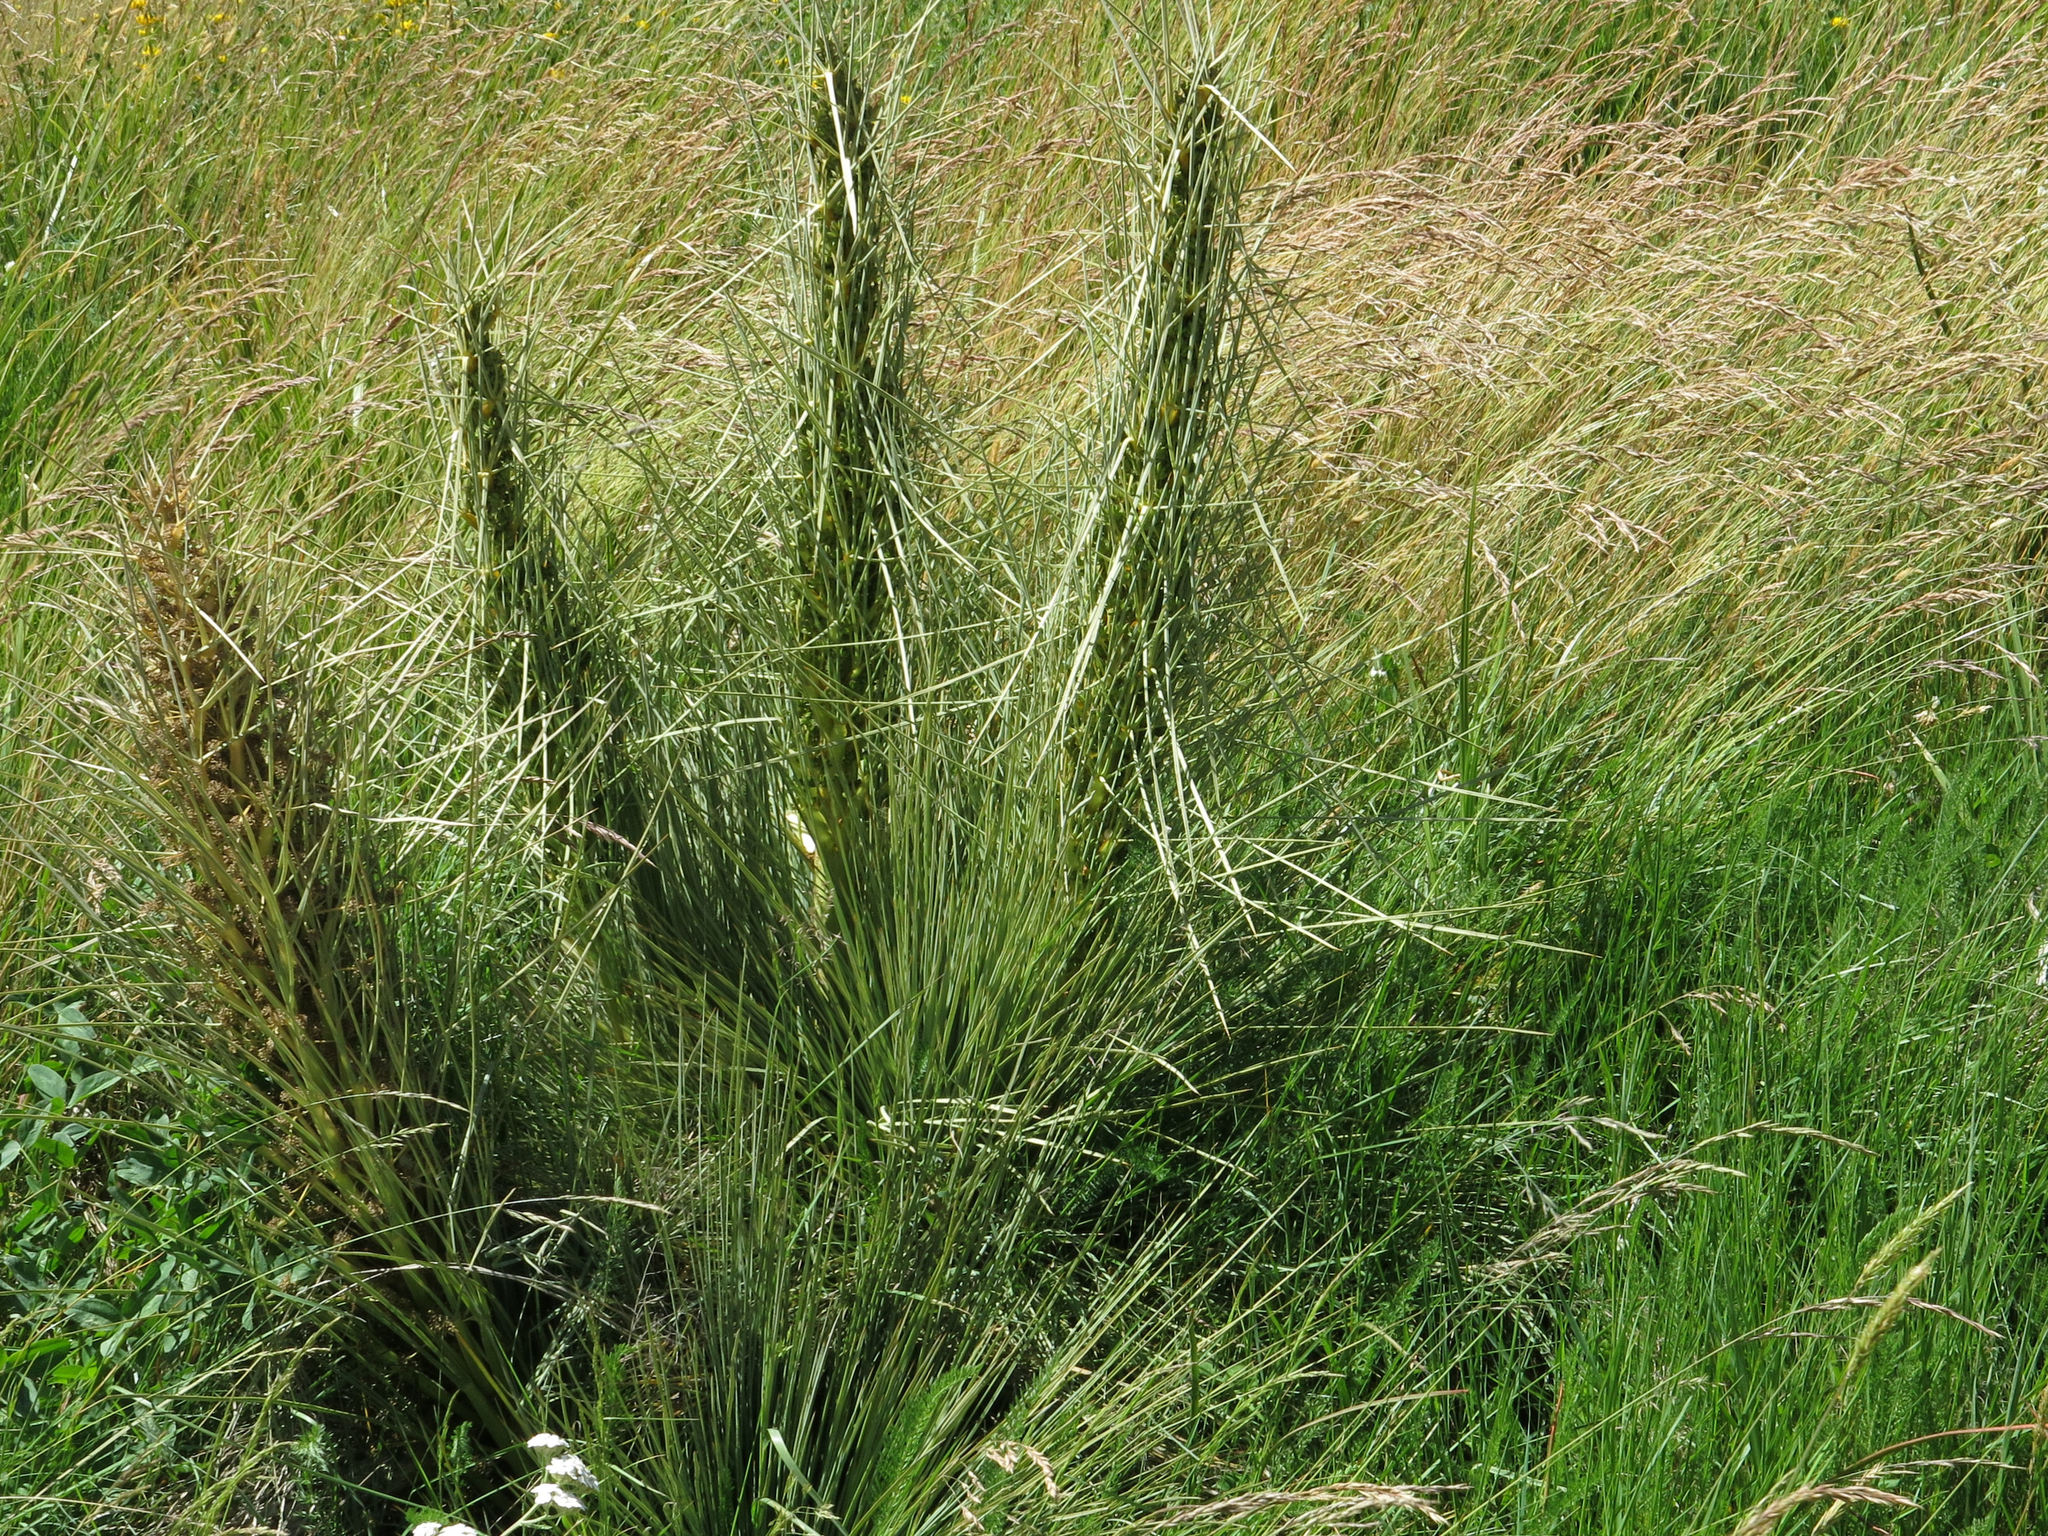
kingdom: Plantae
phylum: Tracheophyta
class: Magnoliopsida
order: Apiales
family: Apiaceae
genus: Aciphylla
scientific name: Aciphylla subflabellata
